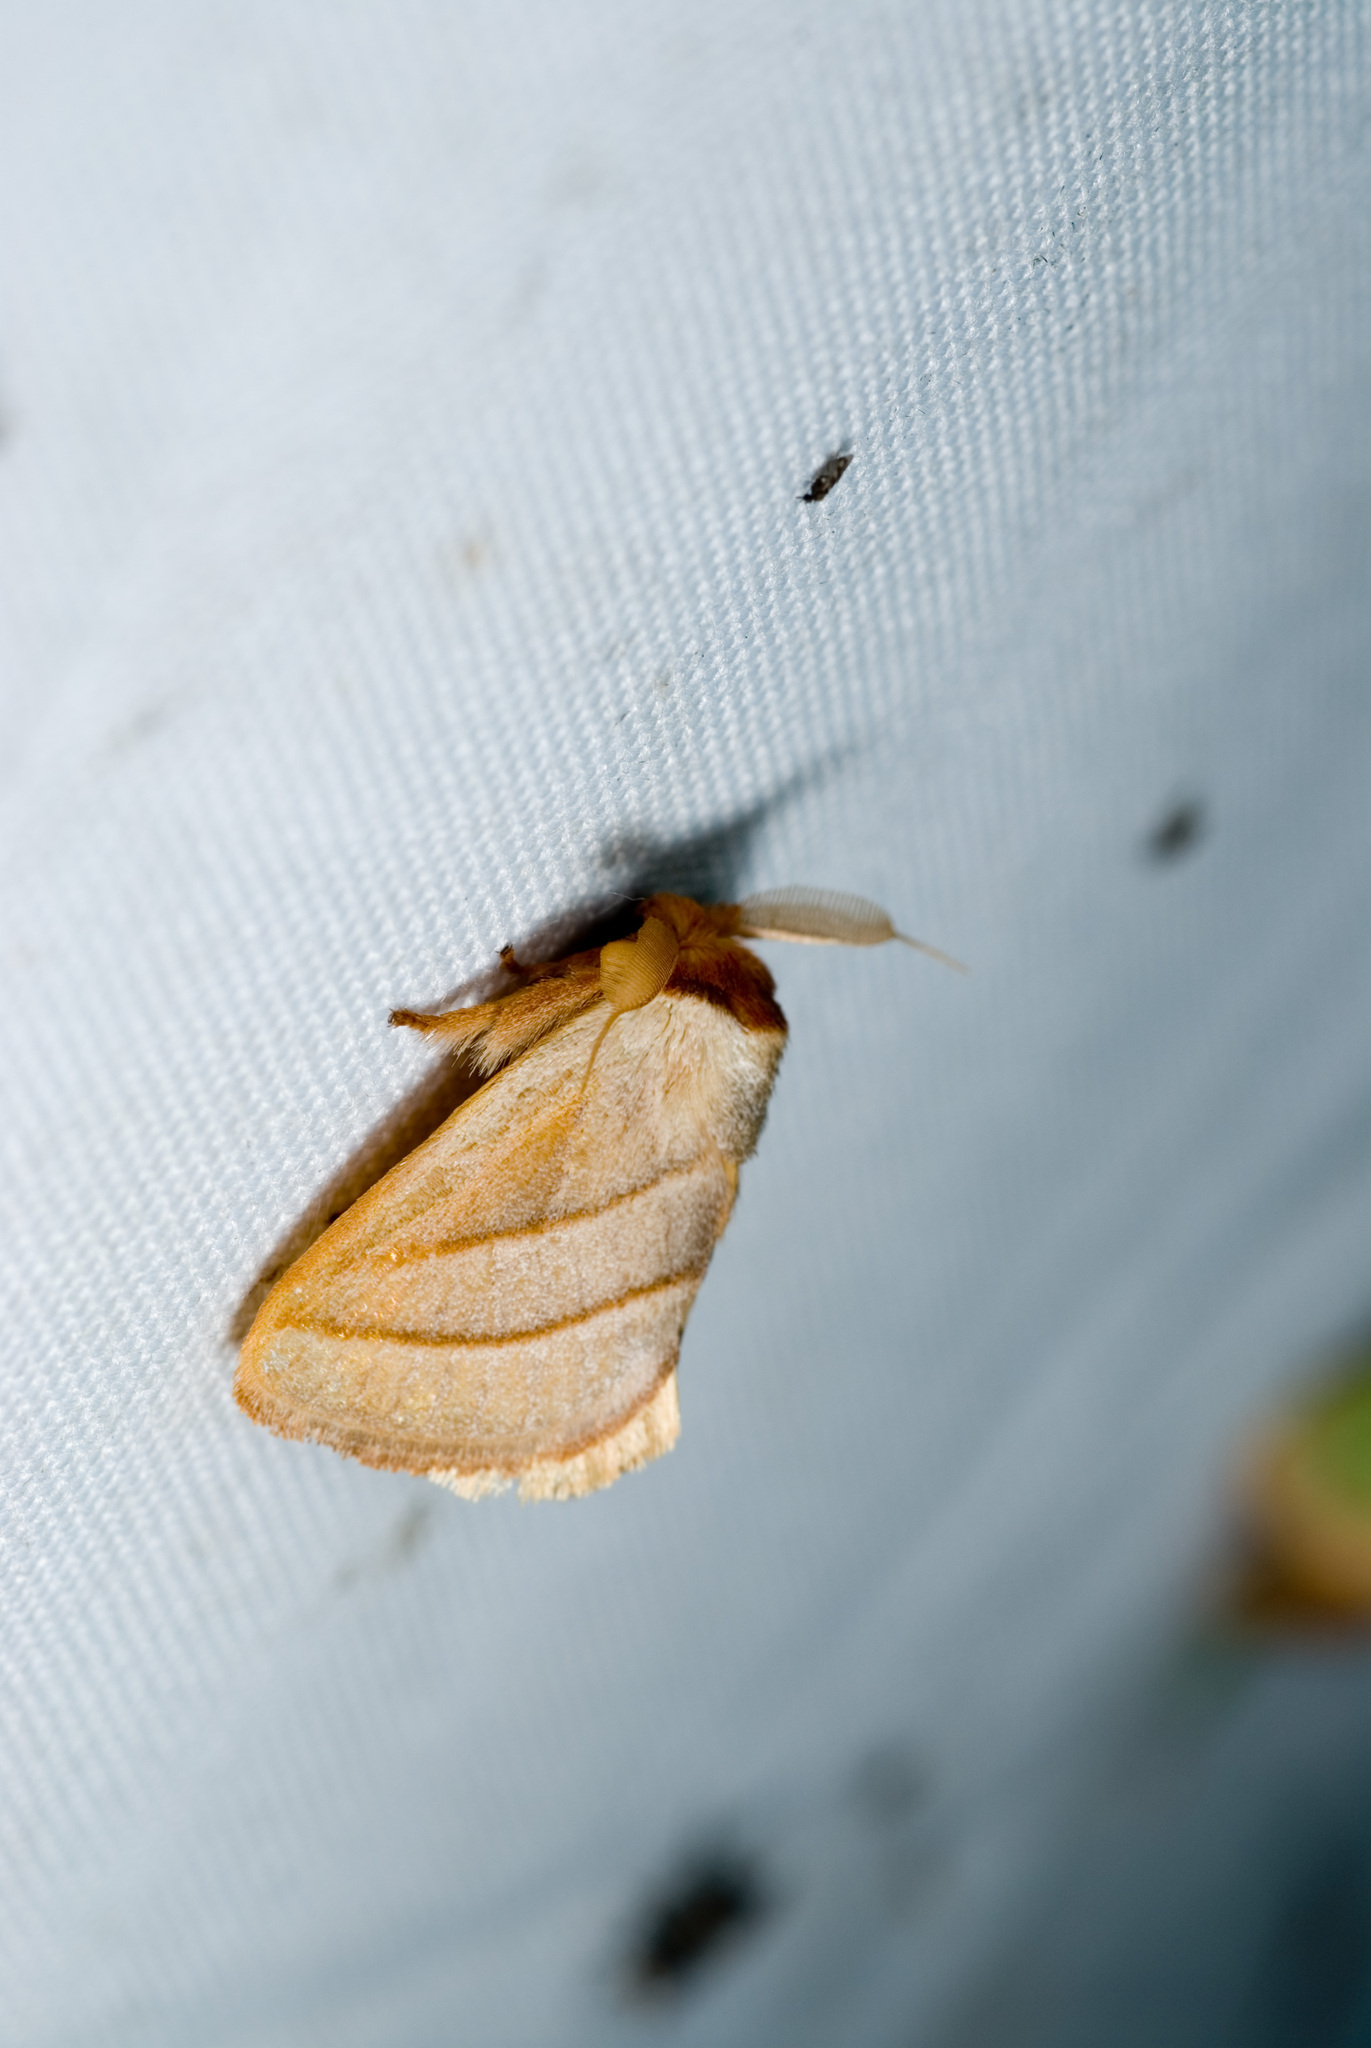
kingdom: Animalia
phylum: Arthropoda
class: Insecta
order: Lepidoptera
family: Limacodidae
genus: Cania
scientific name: Cania heppneri
